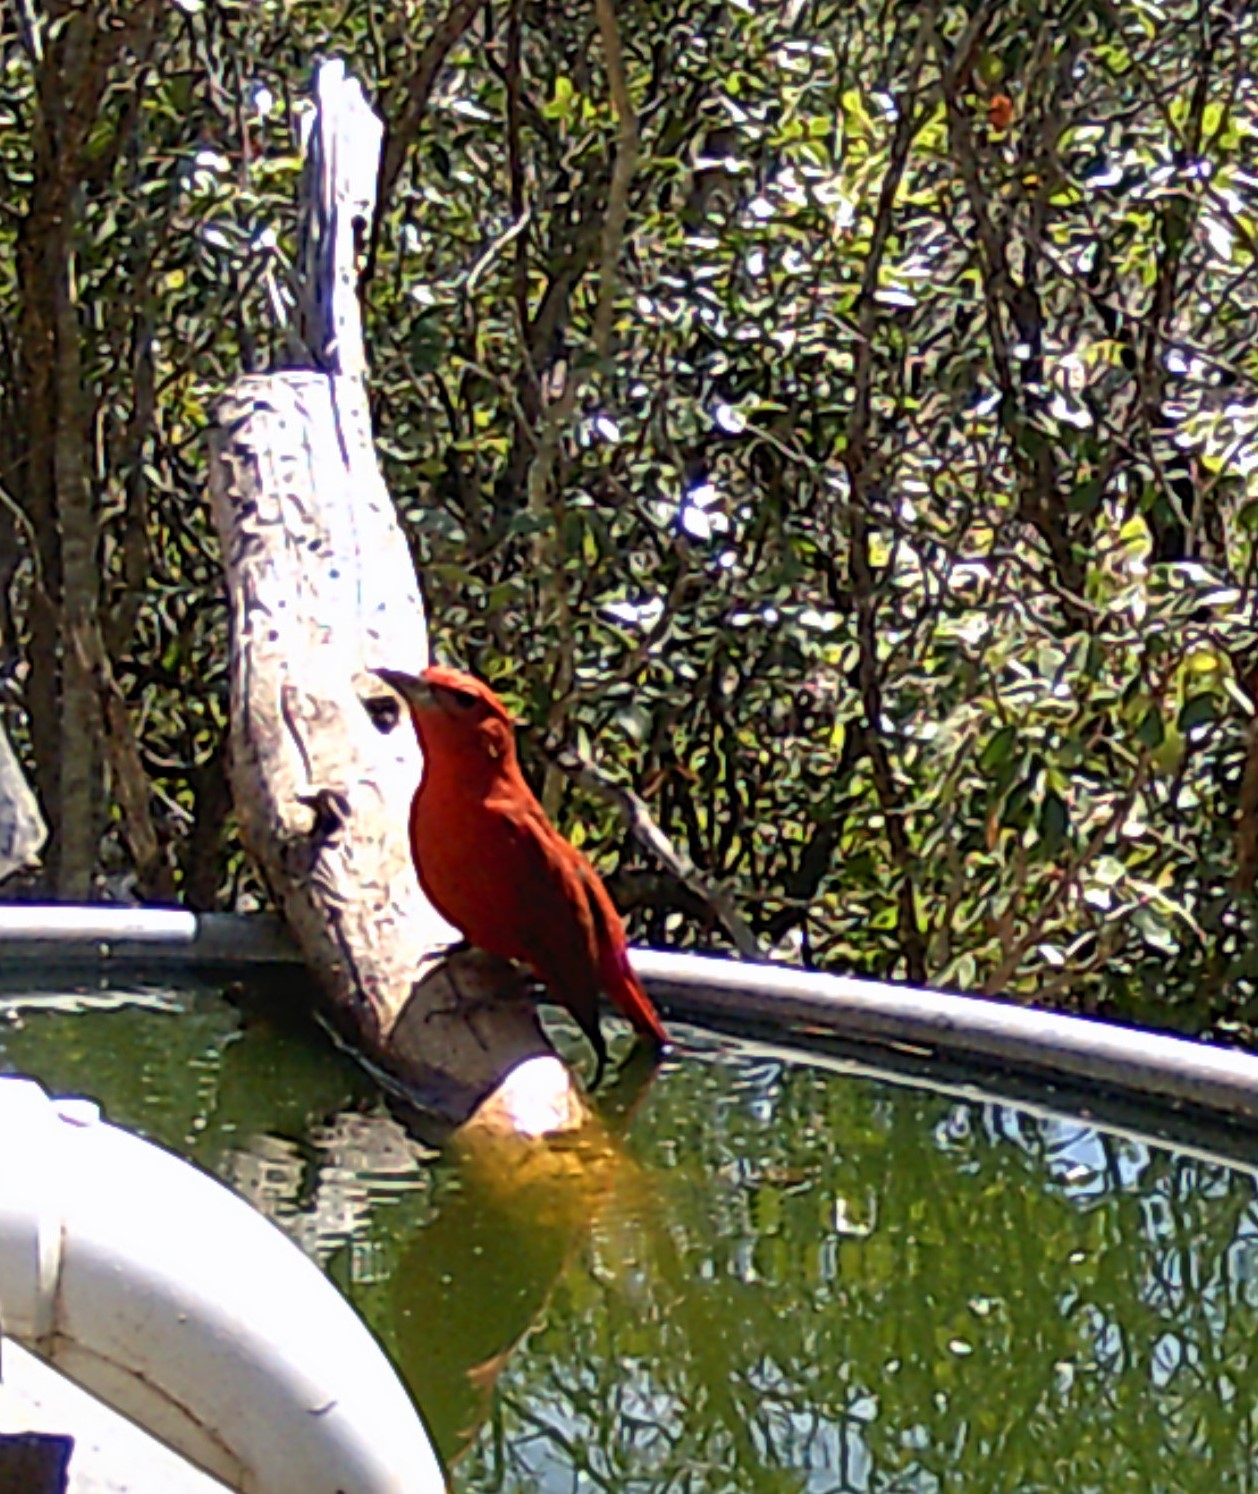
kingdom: Animalia
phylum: Chordata
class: Aves
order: Passeriformes
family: Cardinalidae
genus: Piranga
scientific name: Piranga rubra
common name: Summer tanager
